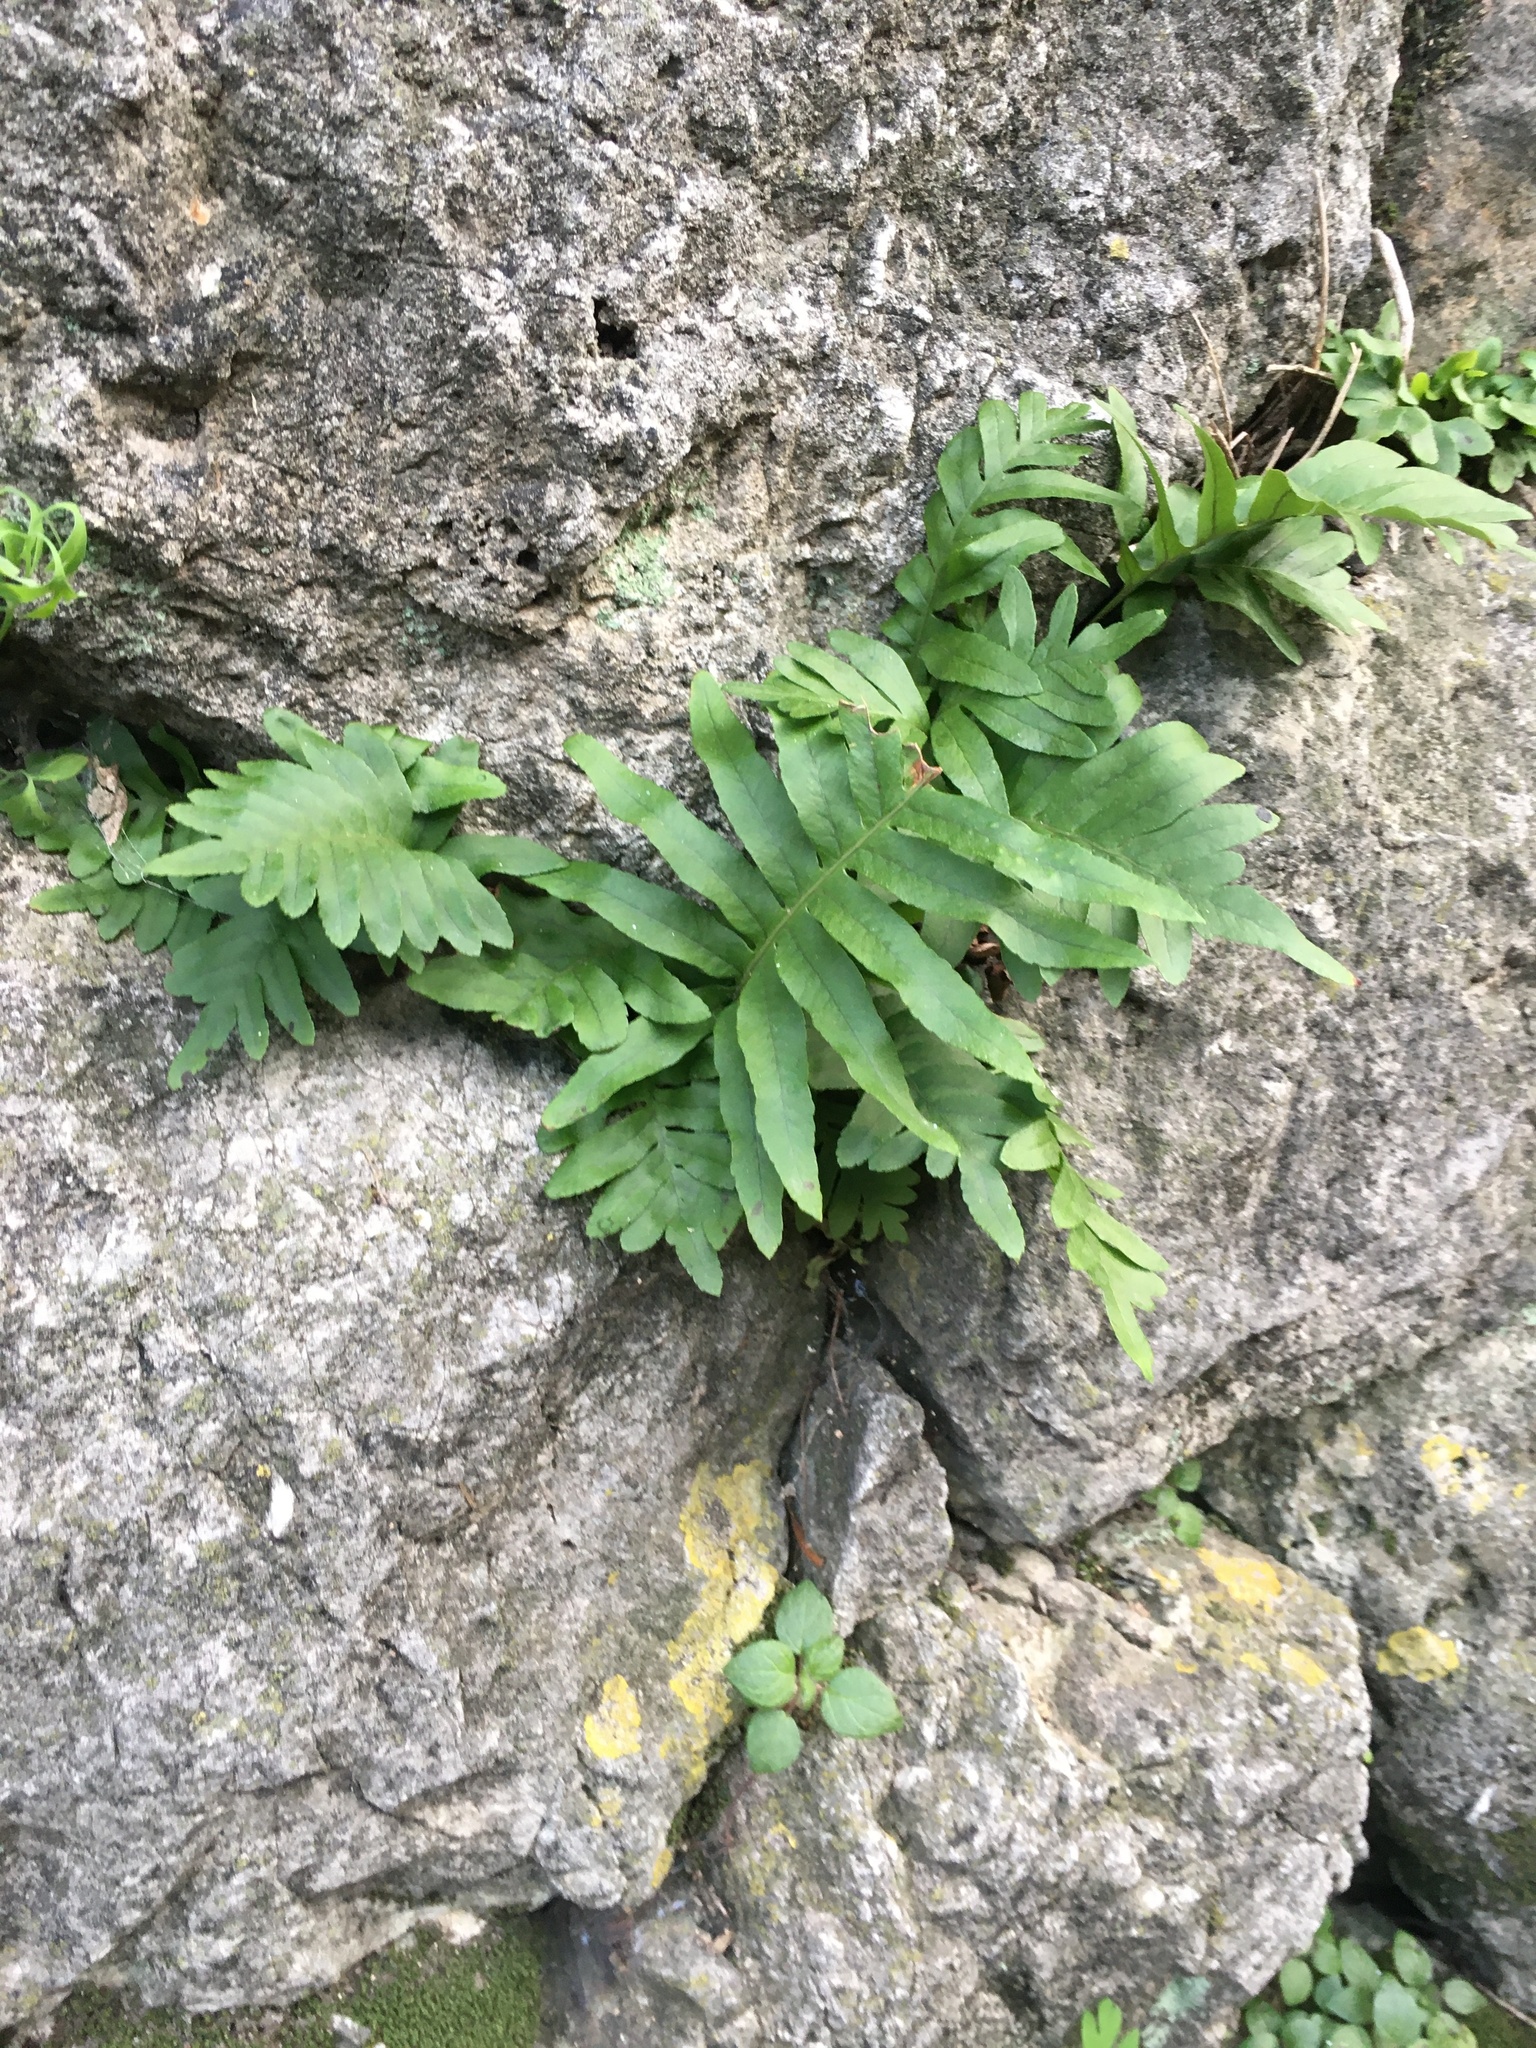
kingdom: Plantae
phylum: Tracheophyta
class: Polypodiopsida
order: Polypodiales
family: Polypodiaceae
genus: Polypodium
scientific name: Polypodium cambricum
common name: Southern polypody
